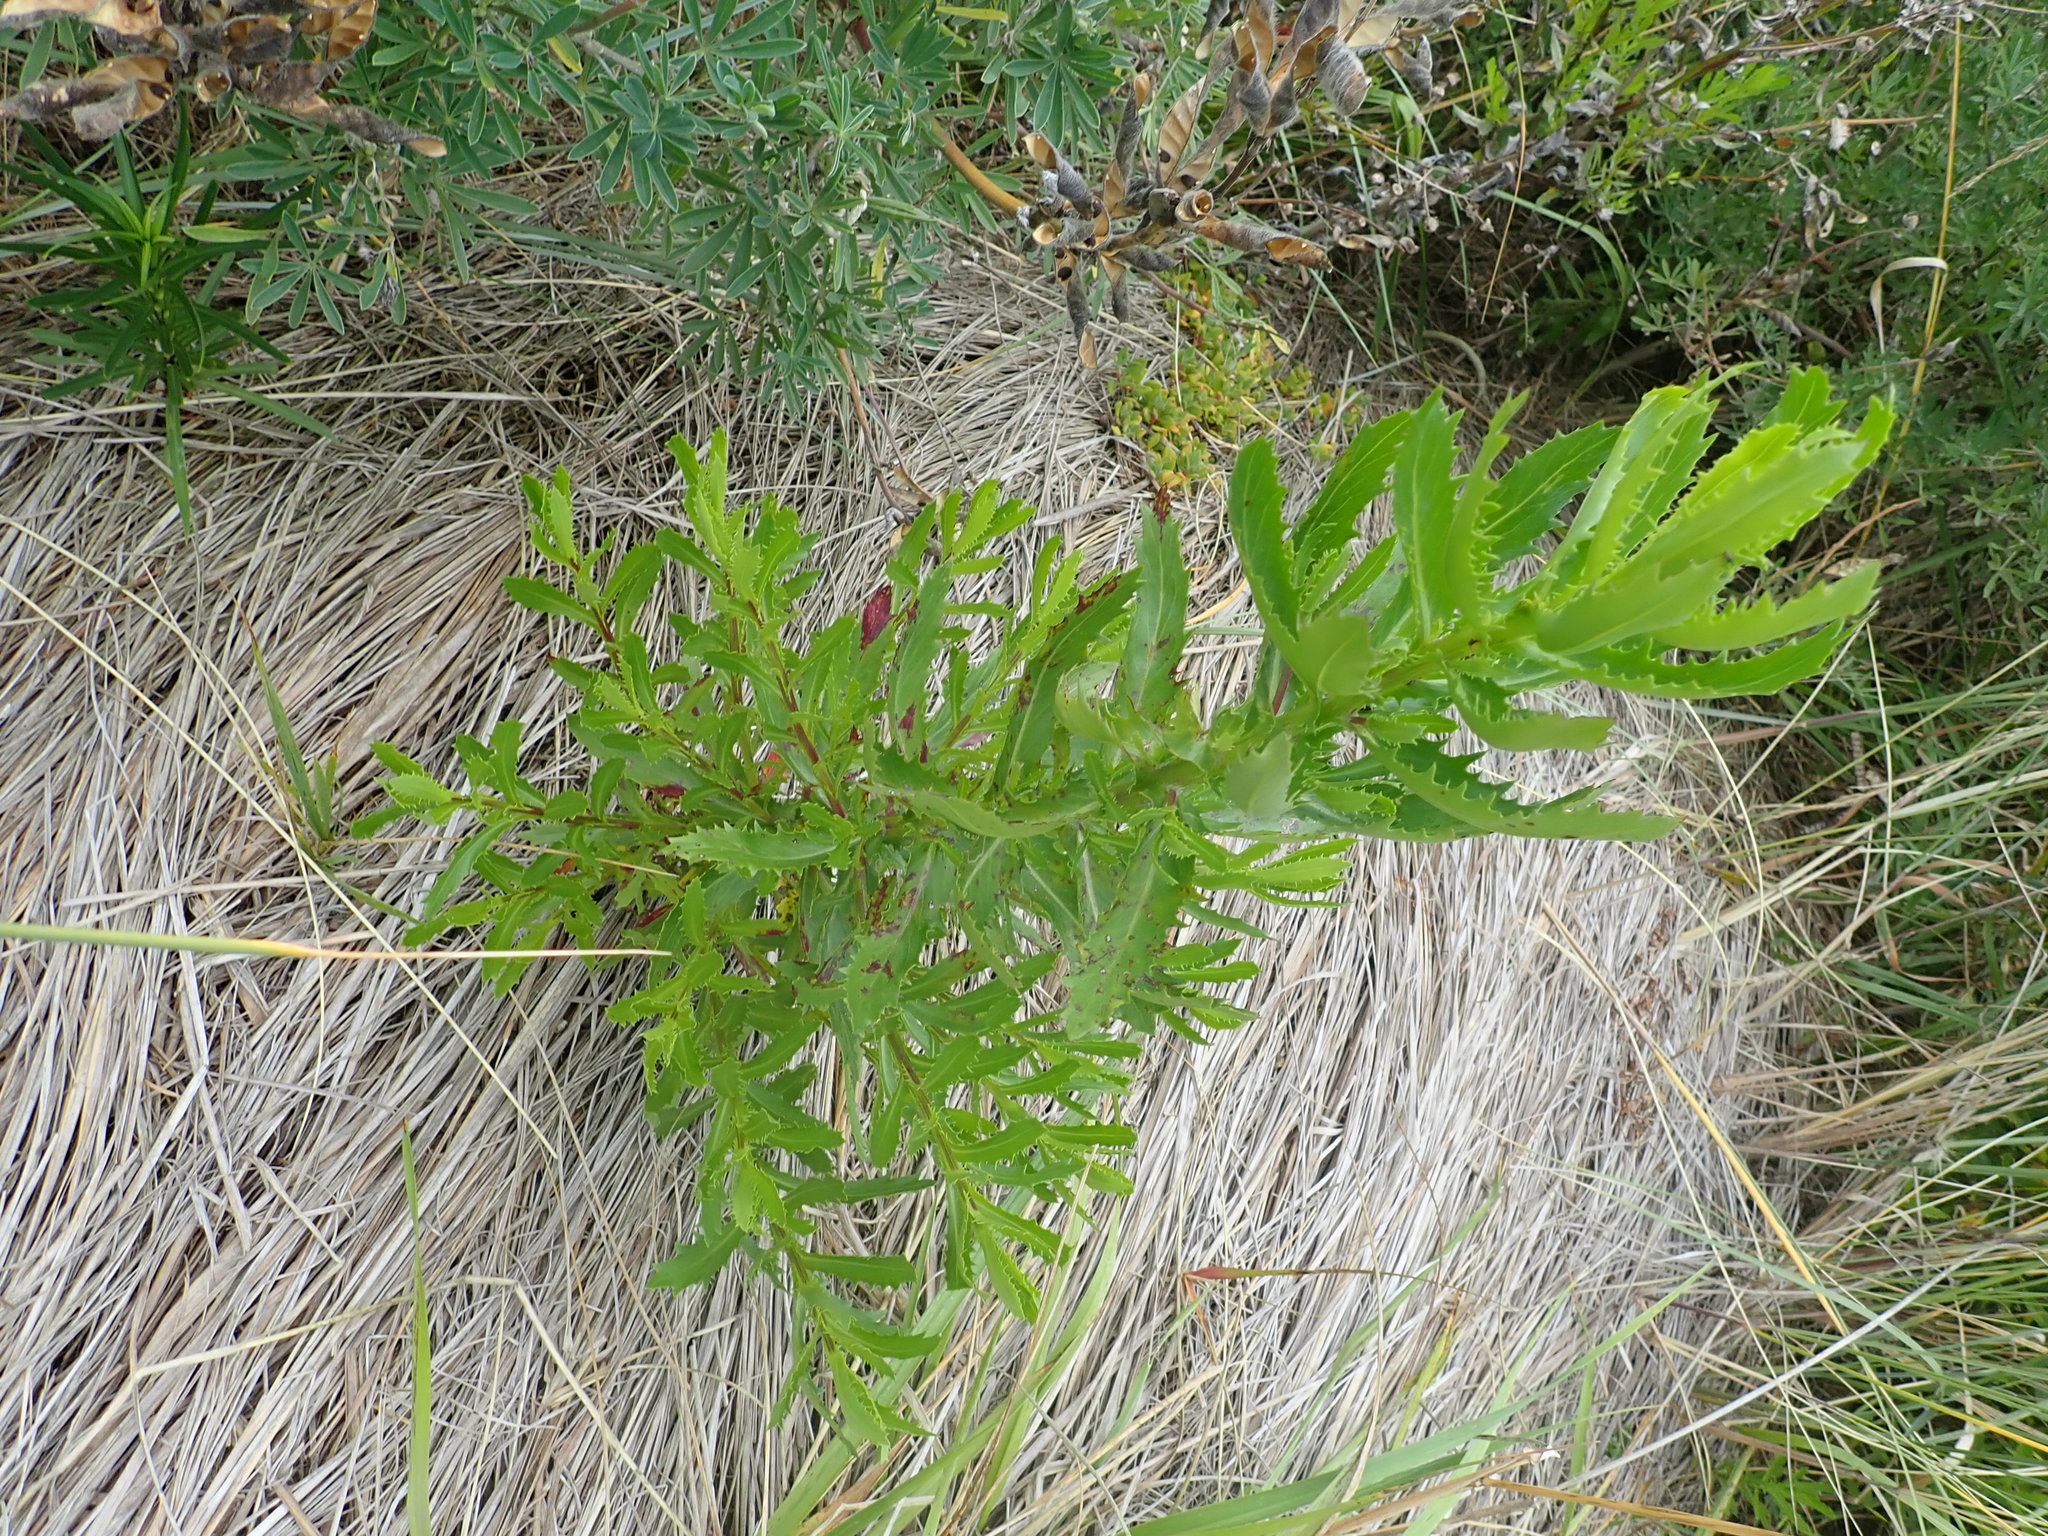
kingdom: Plantae
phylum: Tracheophyta
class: Magnoliopsida
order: Asterales
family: Asteraceae
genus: Senecio
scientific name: Senecio glastifolius
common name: Woad-leaved ragwort
